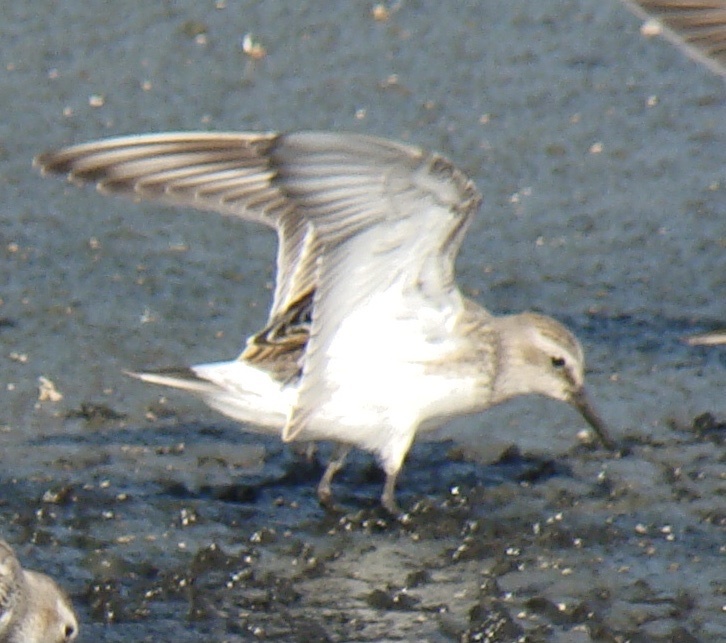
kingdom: Animalia
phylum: Chordata
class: Aves
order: Charadriiformes
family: Scolopacidae
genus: Calidris
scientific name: Calidris fuscicollis
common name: White-rumped sandpiper
